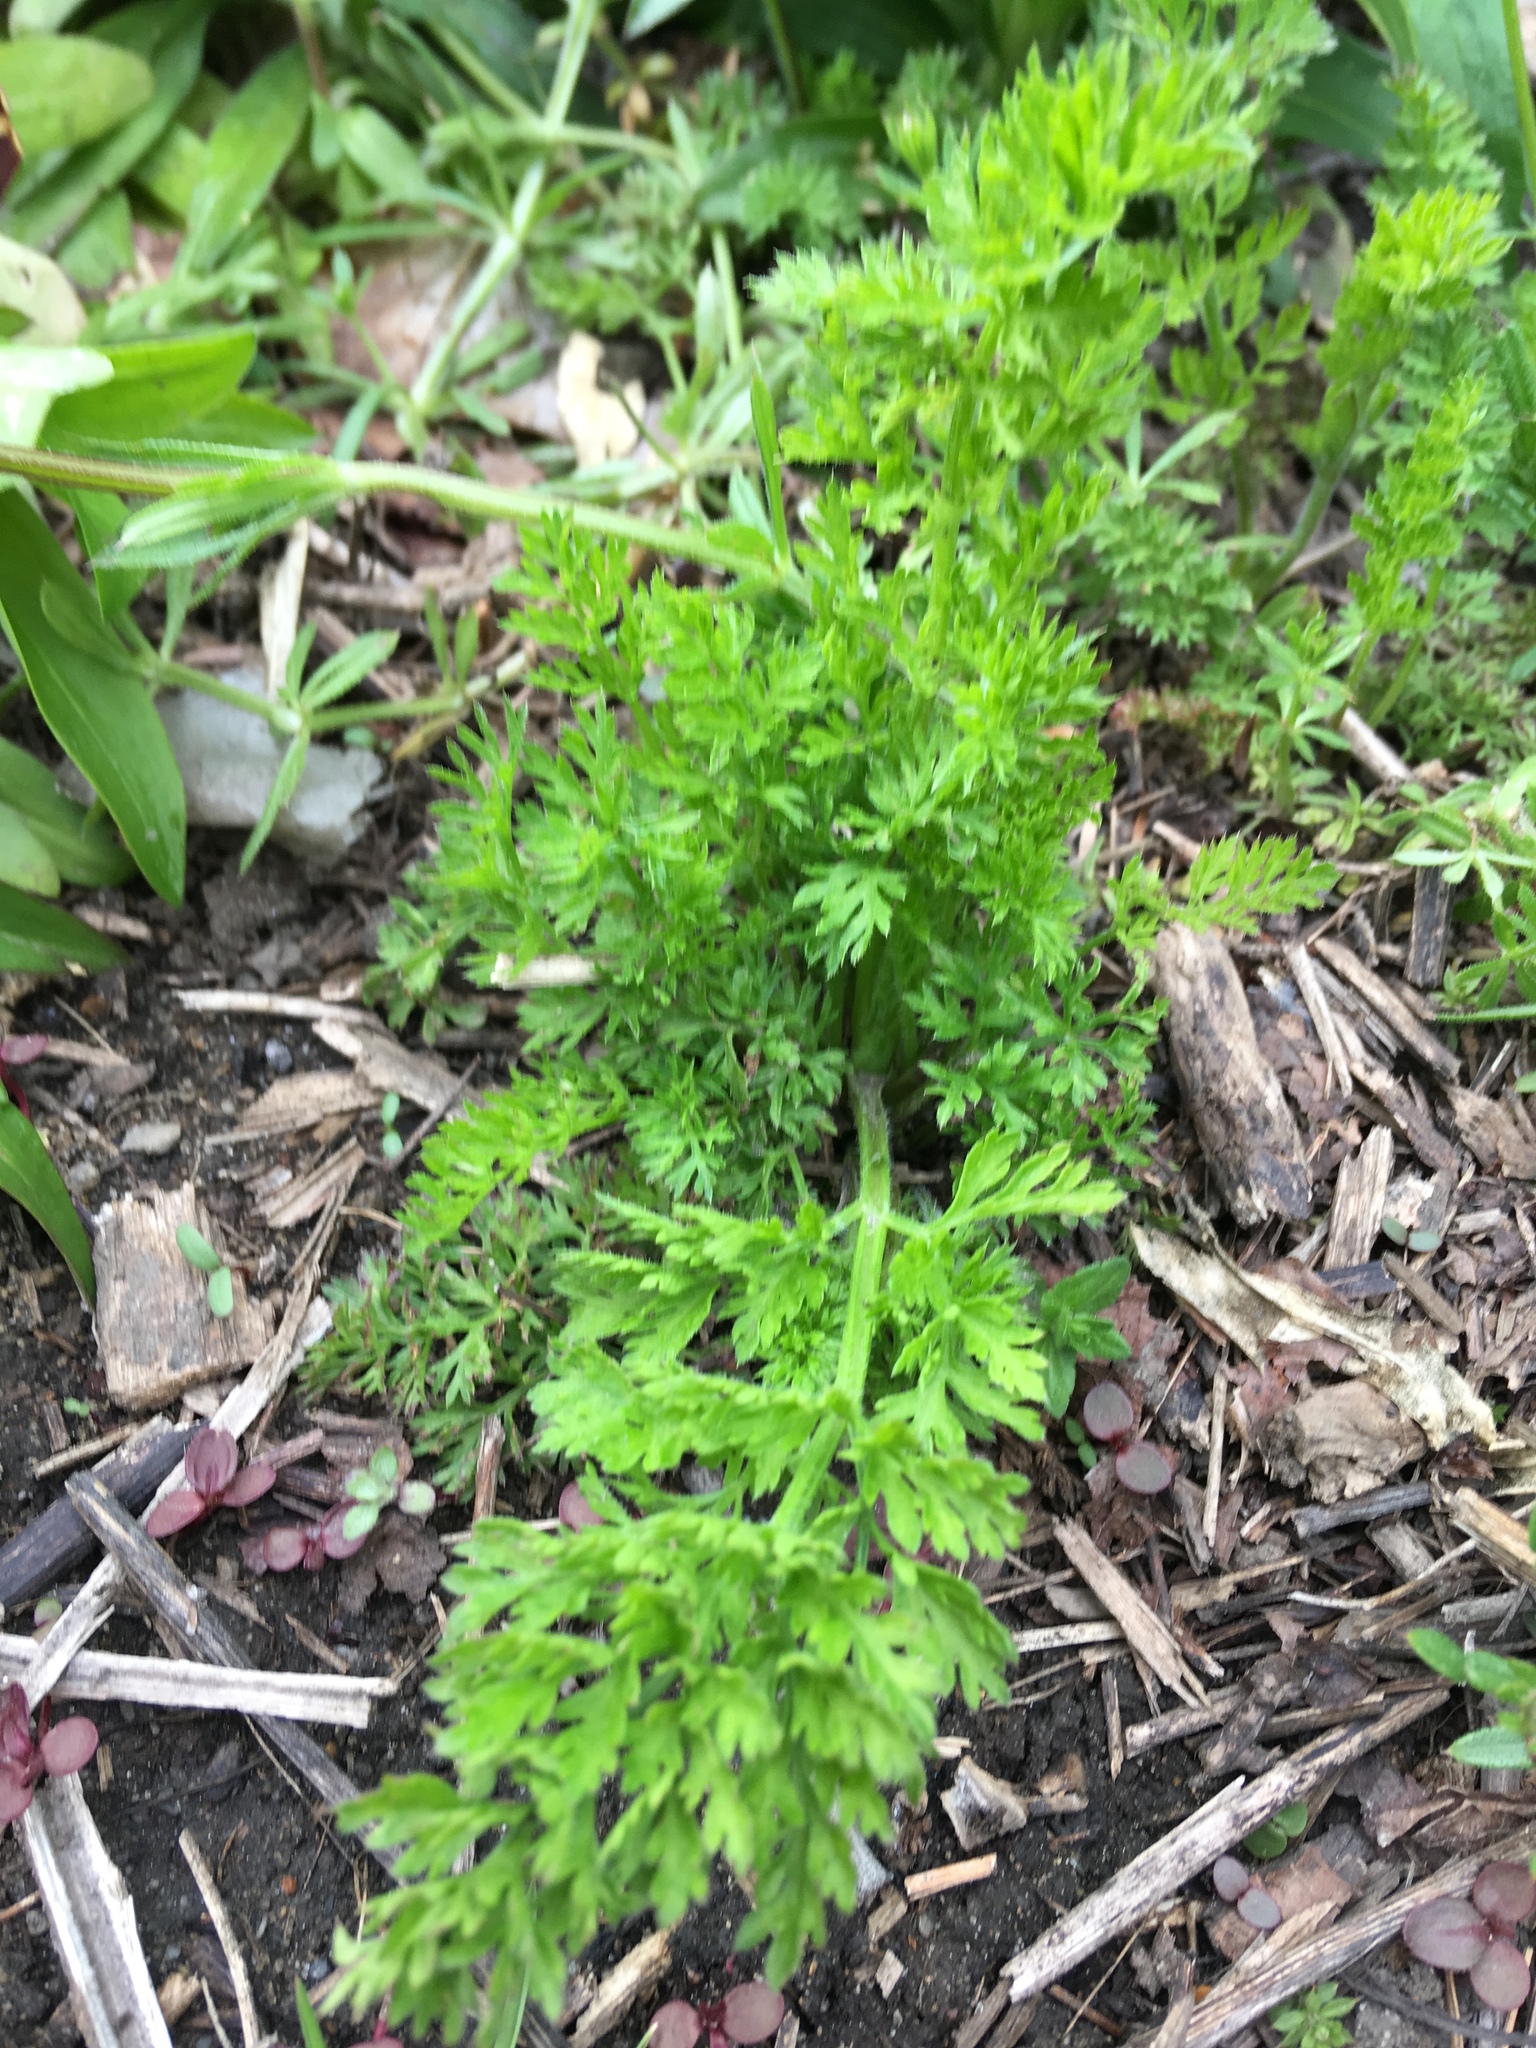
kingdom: Plantae
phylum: Tracheophyta
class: Magnoliopsida
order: Apiales
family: Apiaceae
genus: Daucus
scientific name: Daucus carota
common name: Wild carrot
